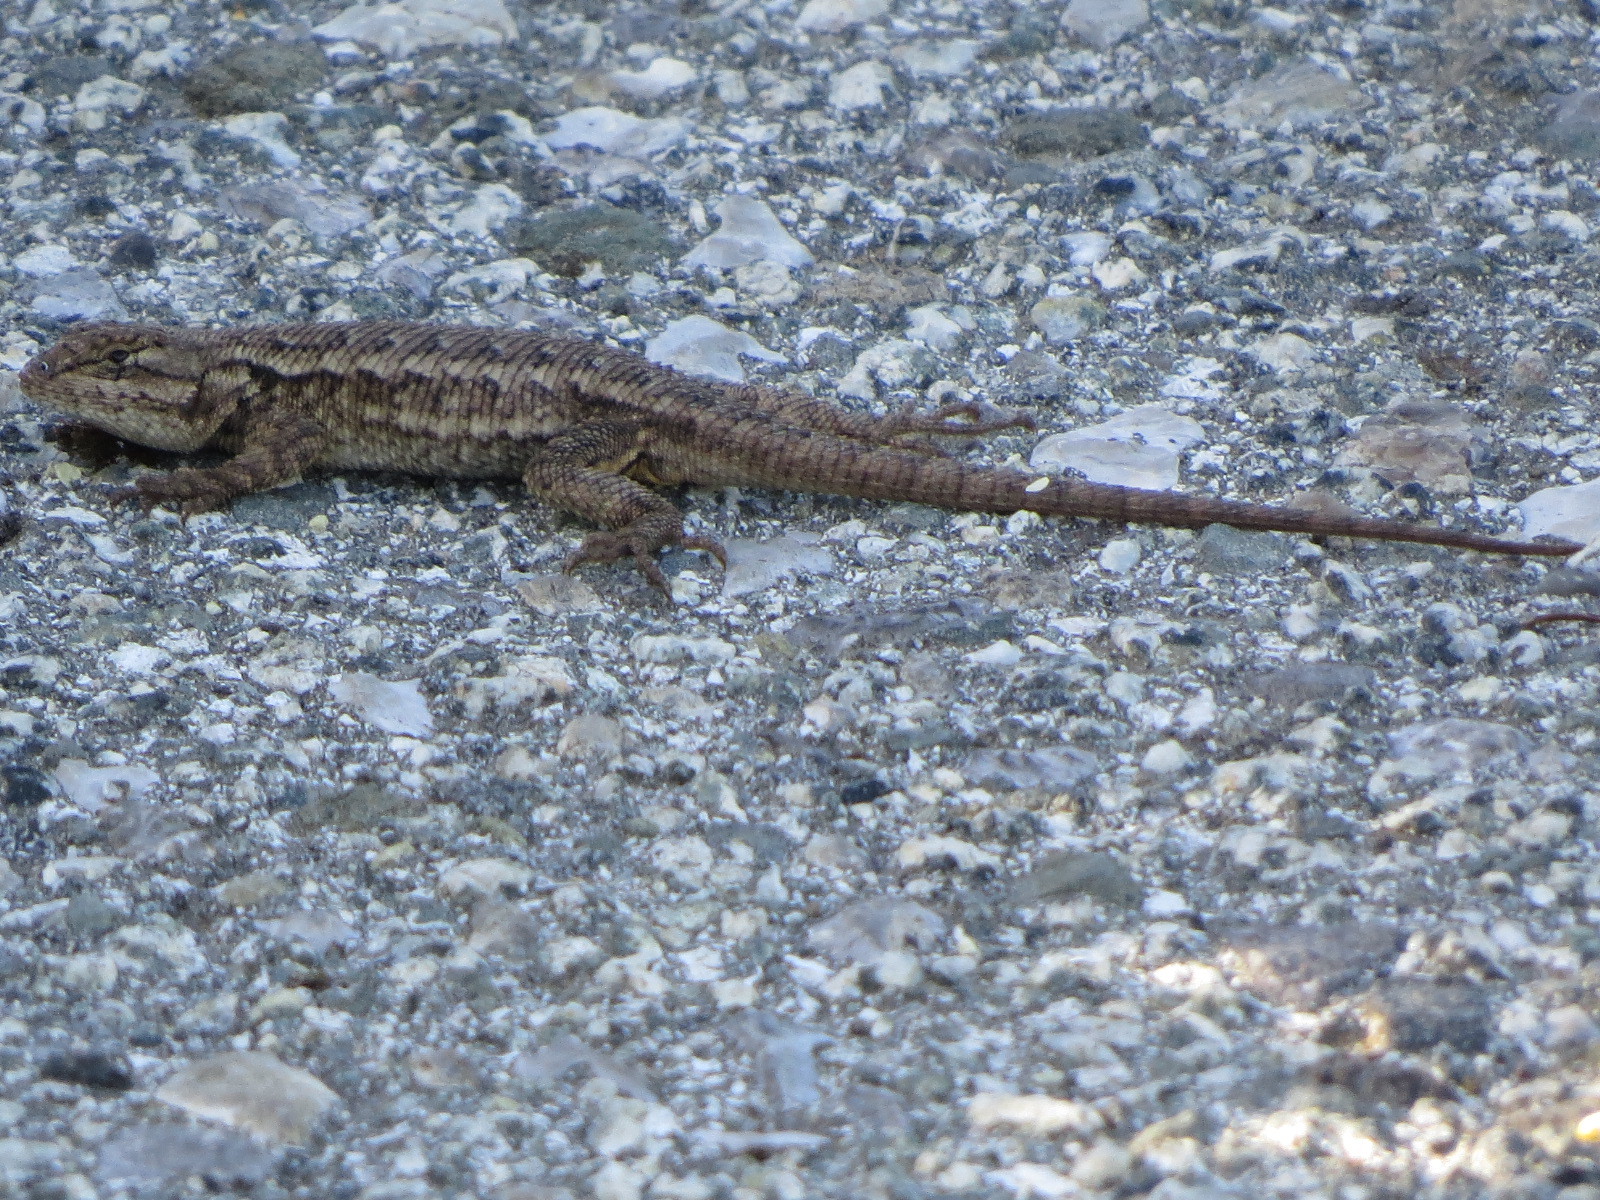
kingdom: Animalia
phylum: Chordata
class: Squamata
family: Phrynosomatidae
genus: Sceloporus
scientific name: Sceloporus occidentalis
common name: Western fence lizard
